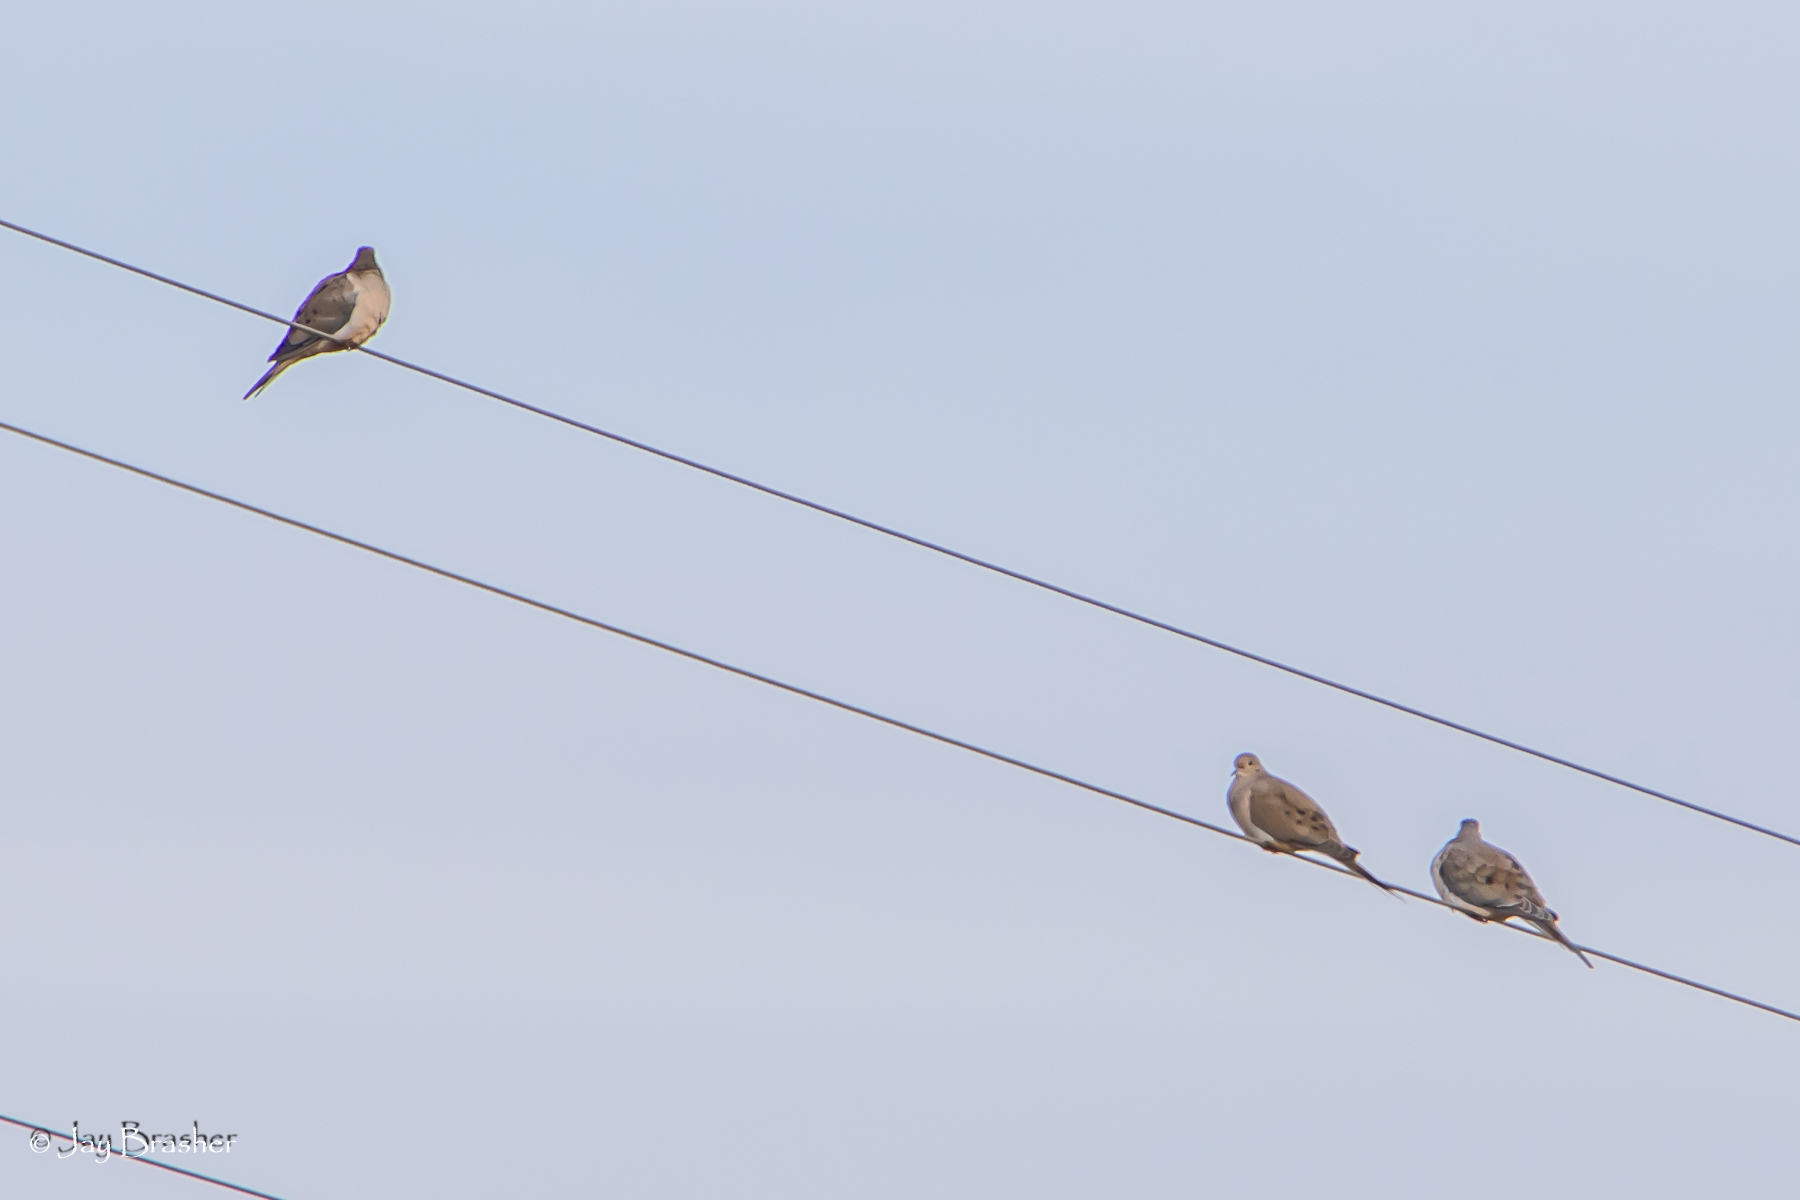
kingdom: Animalia
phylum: Chordata
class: Aves
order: Columbiformes
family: Columbidae
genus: Zenaida
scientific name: Zenaida macroura
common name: Mourning dove
